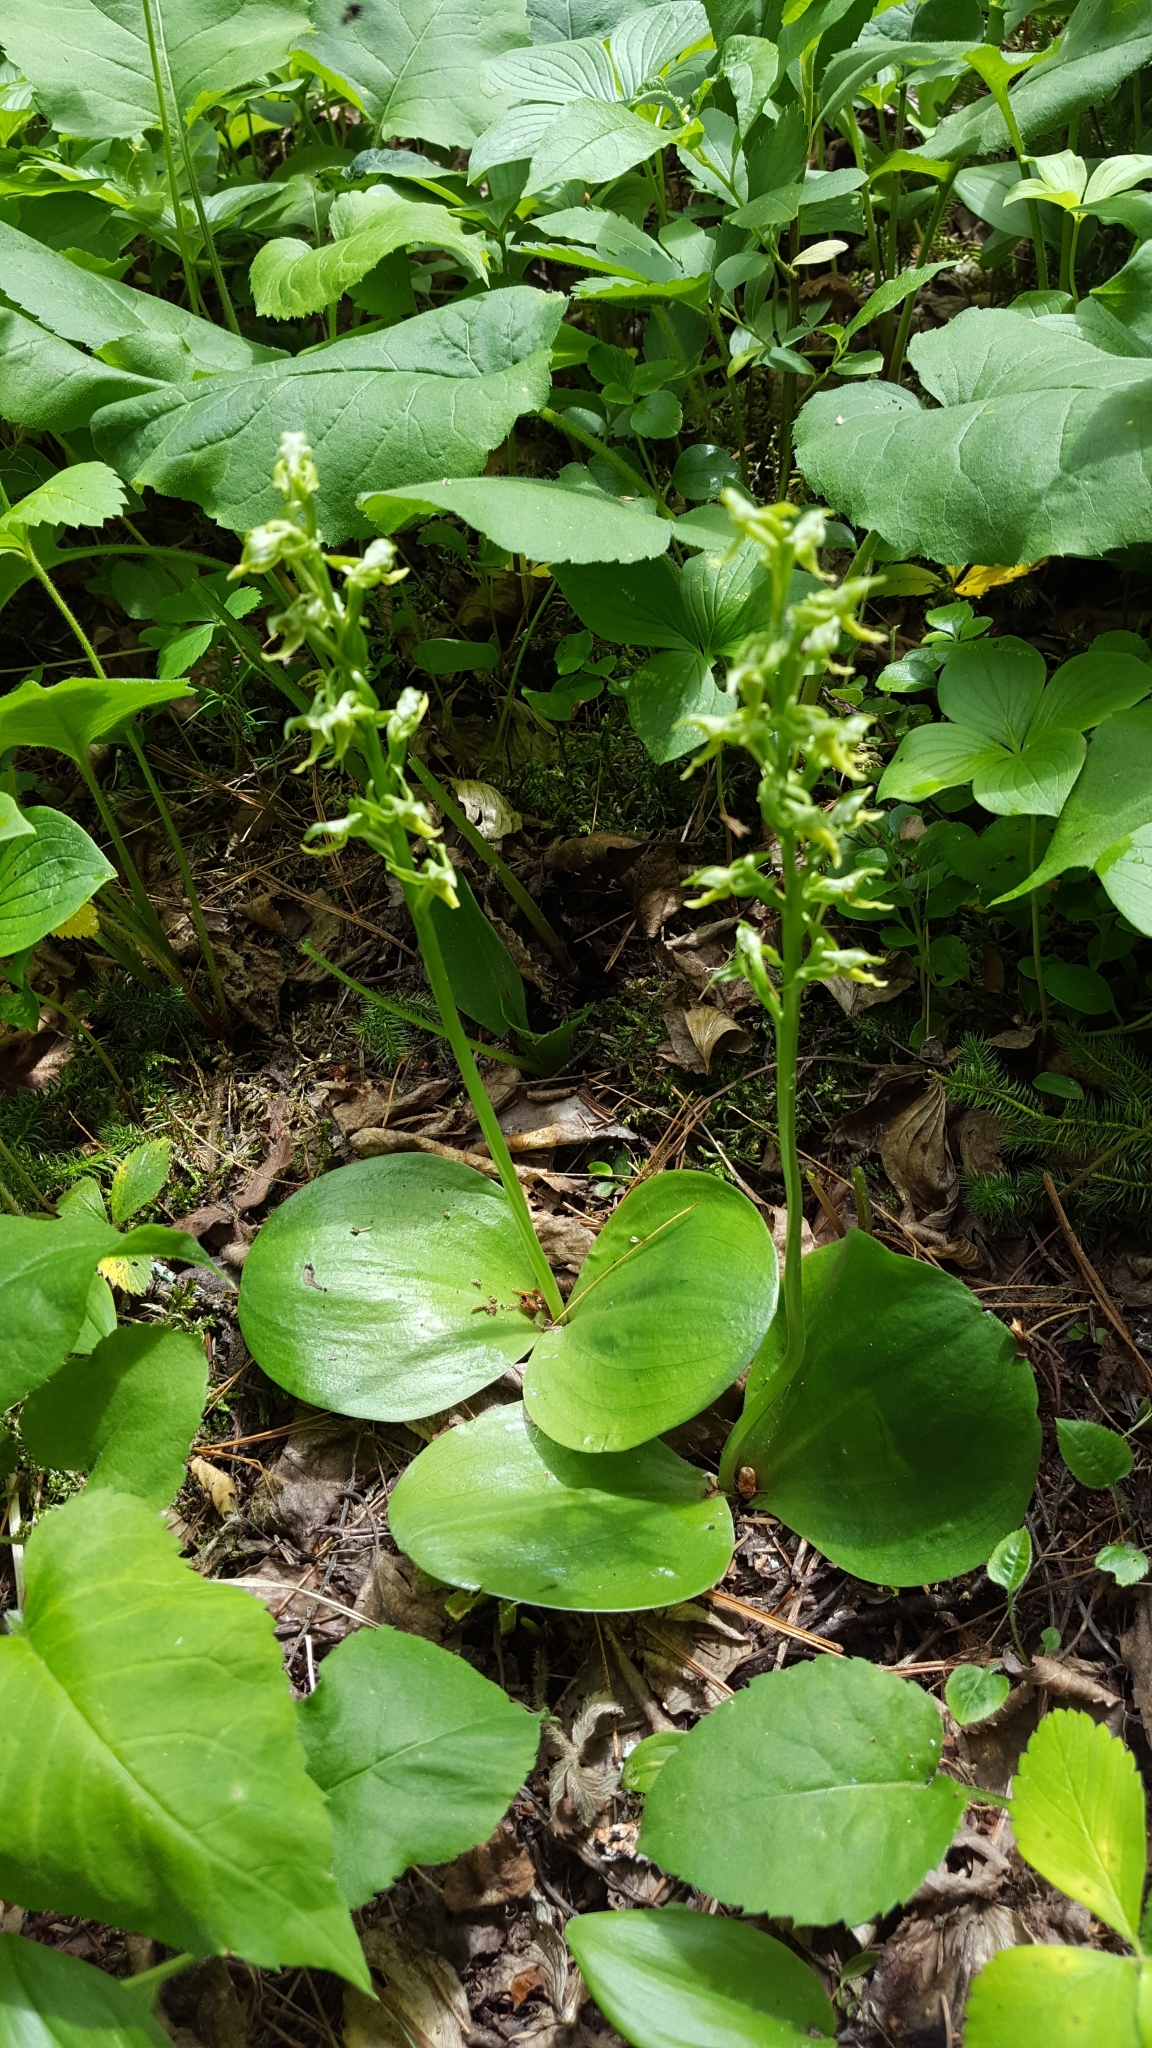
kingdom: Plantae
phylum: Tracheophyta
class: Liliopsida
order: Asparagales
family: Orchidaceae
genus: Platanthera
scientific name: Platanthera hookeri
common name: Hooker's orchid
